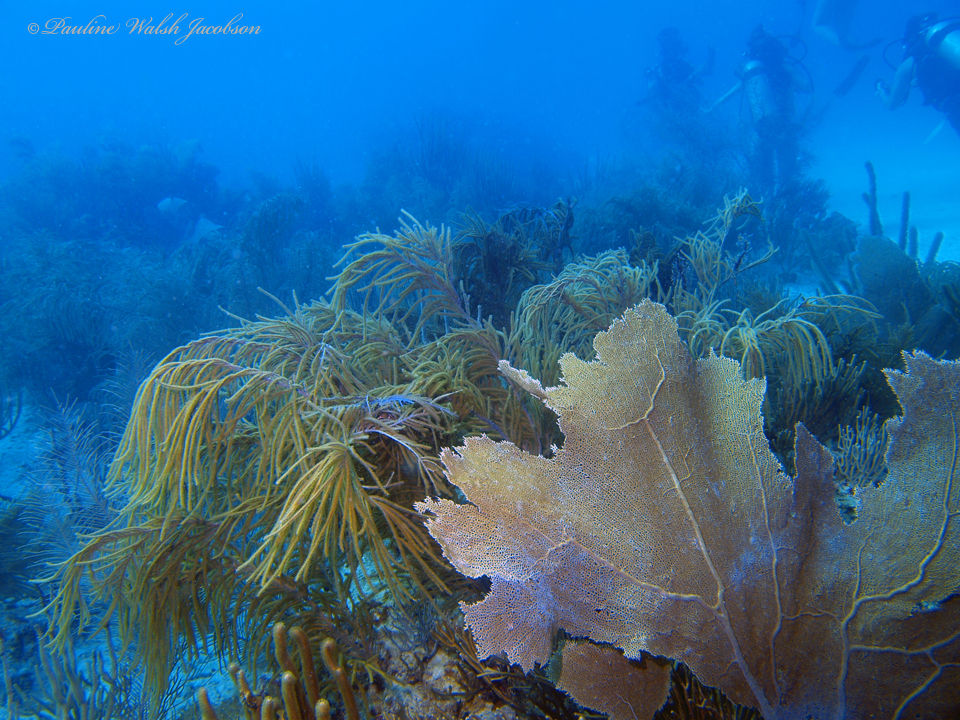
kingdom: Animalia
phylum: Cnidaria
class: Anthozoa
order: Malacalcyonacea
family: Gorgoniidae
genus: Gorgonia
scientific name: Gorgonia ventalina
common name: Common sea fan
